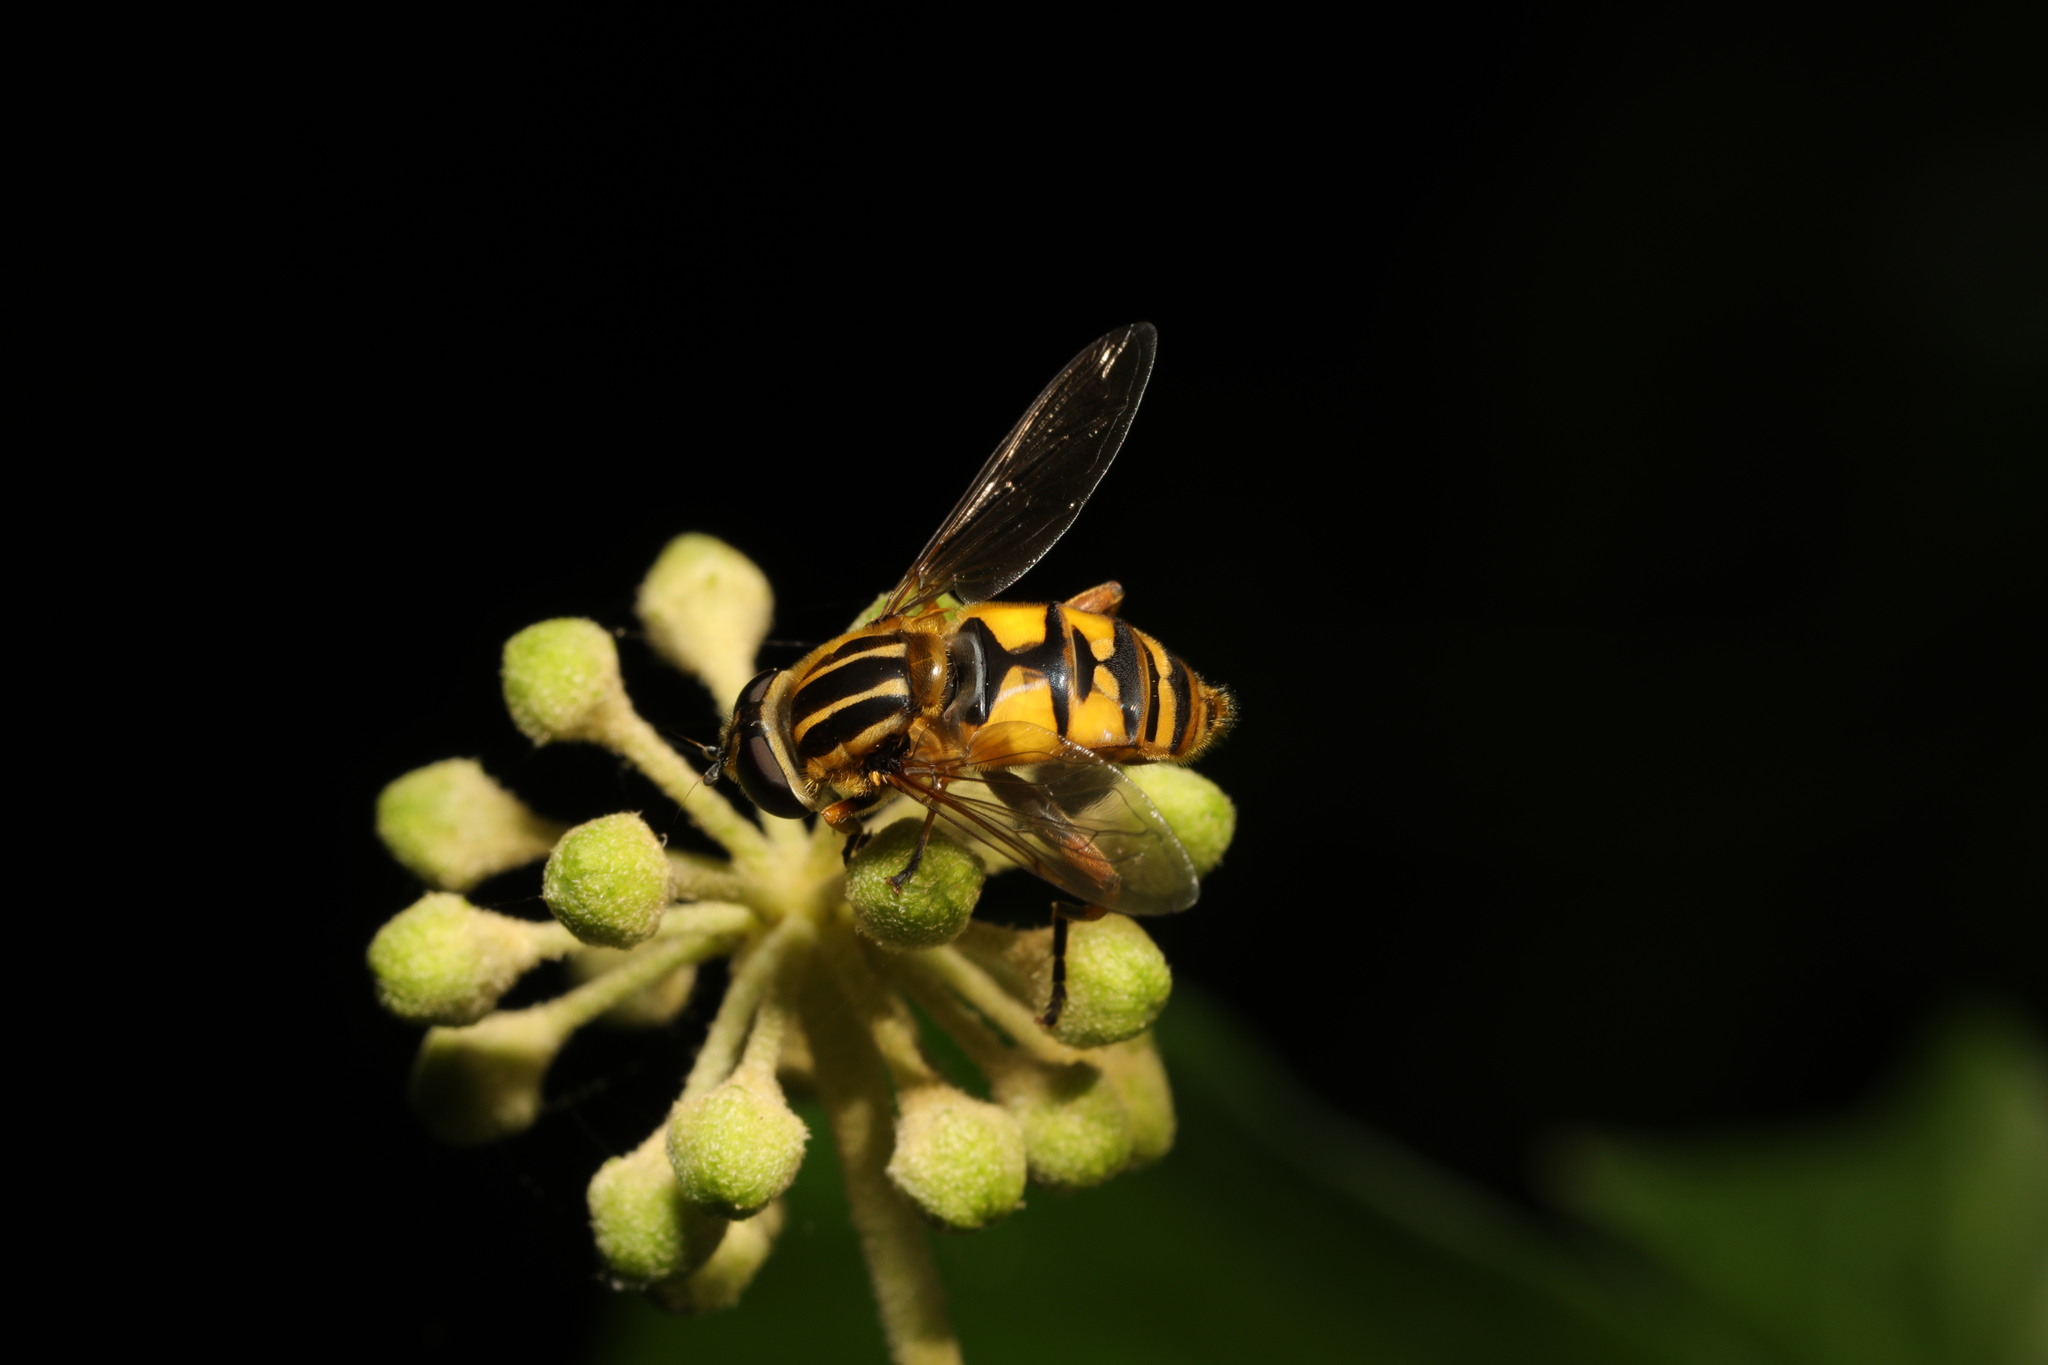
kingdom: Animalia
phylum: Arthropoda
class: Insecta
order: Diptera
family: Syrphidae
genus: Helophilus
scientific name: Helophilus pendulus
